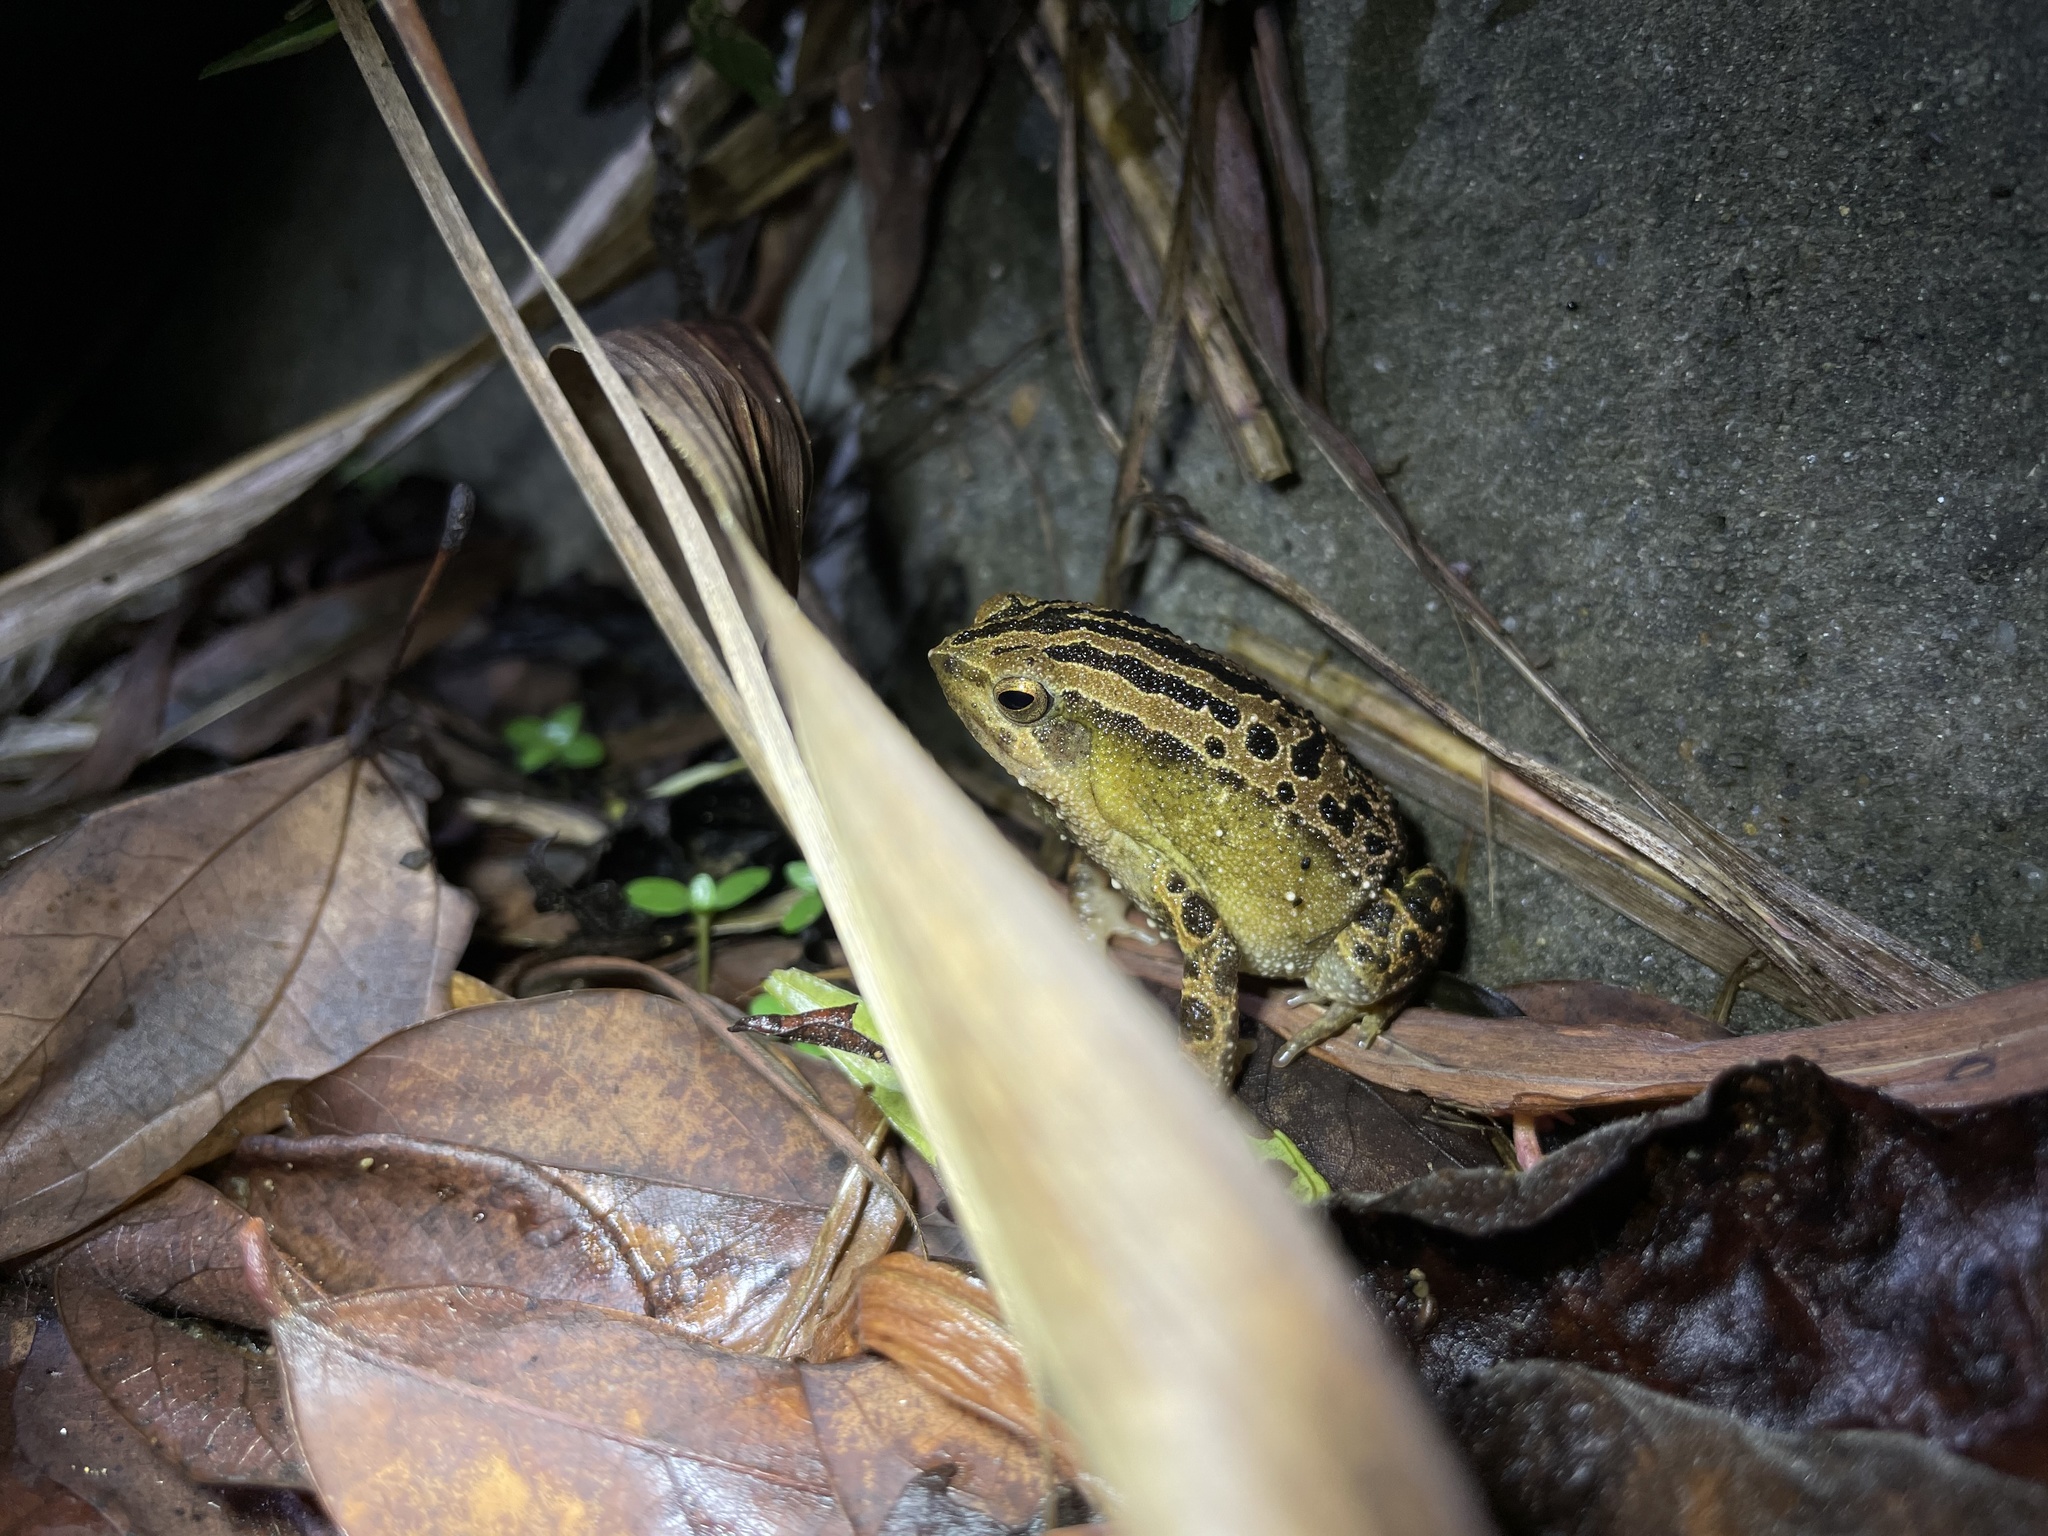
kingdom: Animalia
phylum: Chordata
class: Amphibia
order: Anura
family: Microhylidae
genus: Kalophrynus
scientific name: Kalophrynus interlineatus
